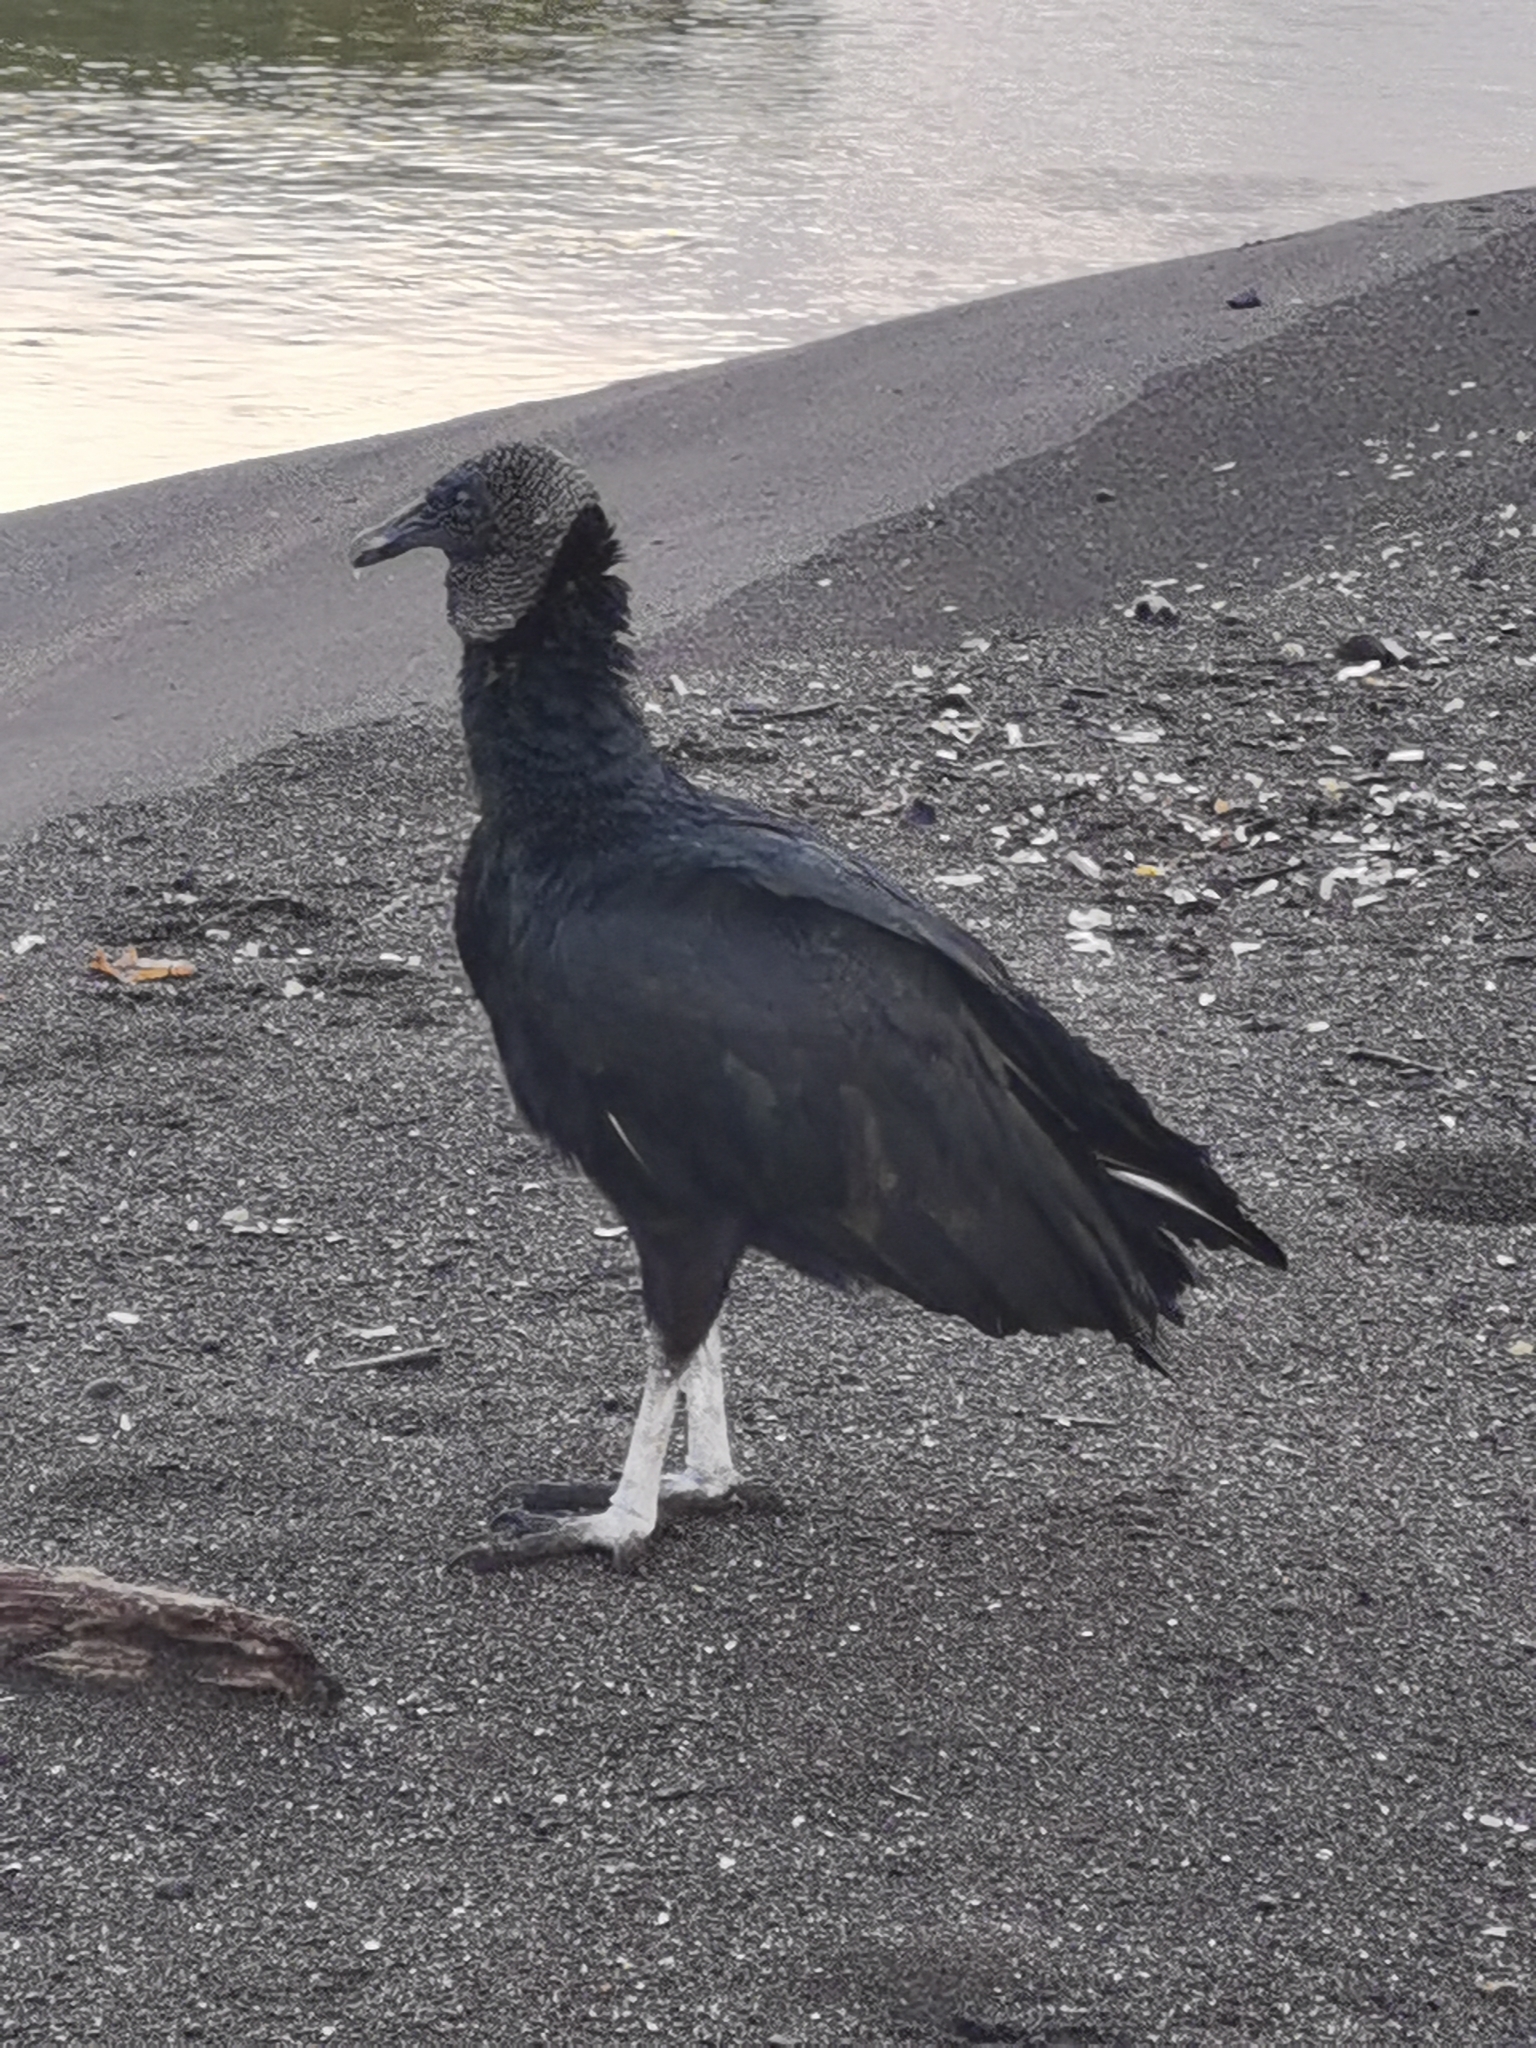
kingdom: Animalia
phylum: Chordata
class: Aves
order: Accipitriformes
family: Cathartidae
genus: Coragyps
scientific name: Coragyps atratus
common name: Black vulture
